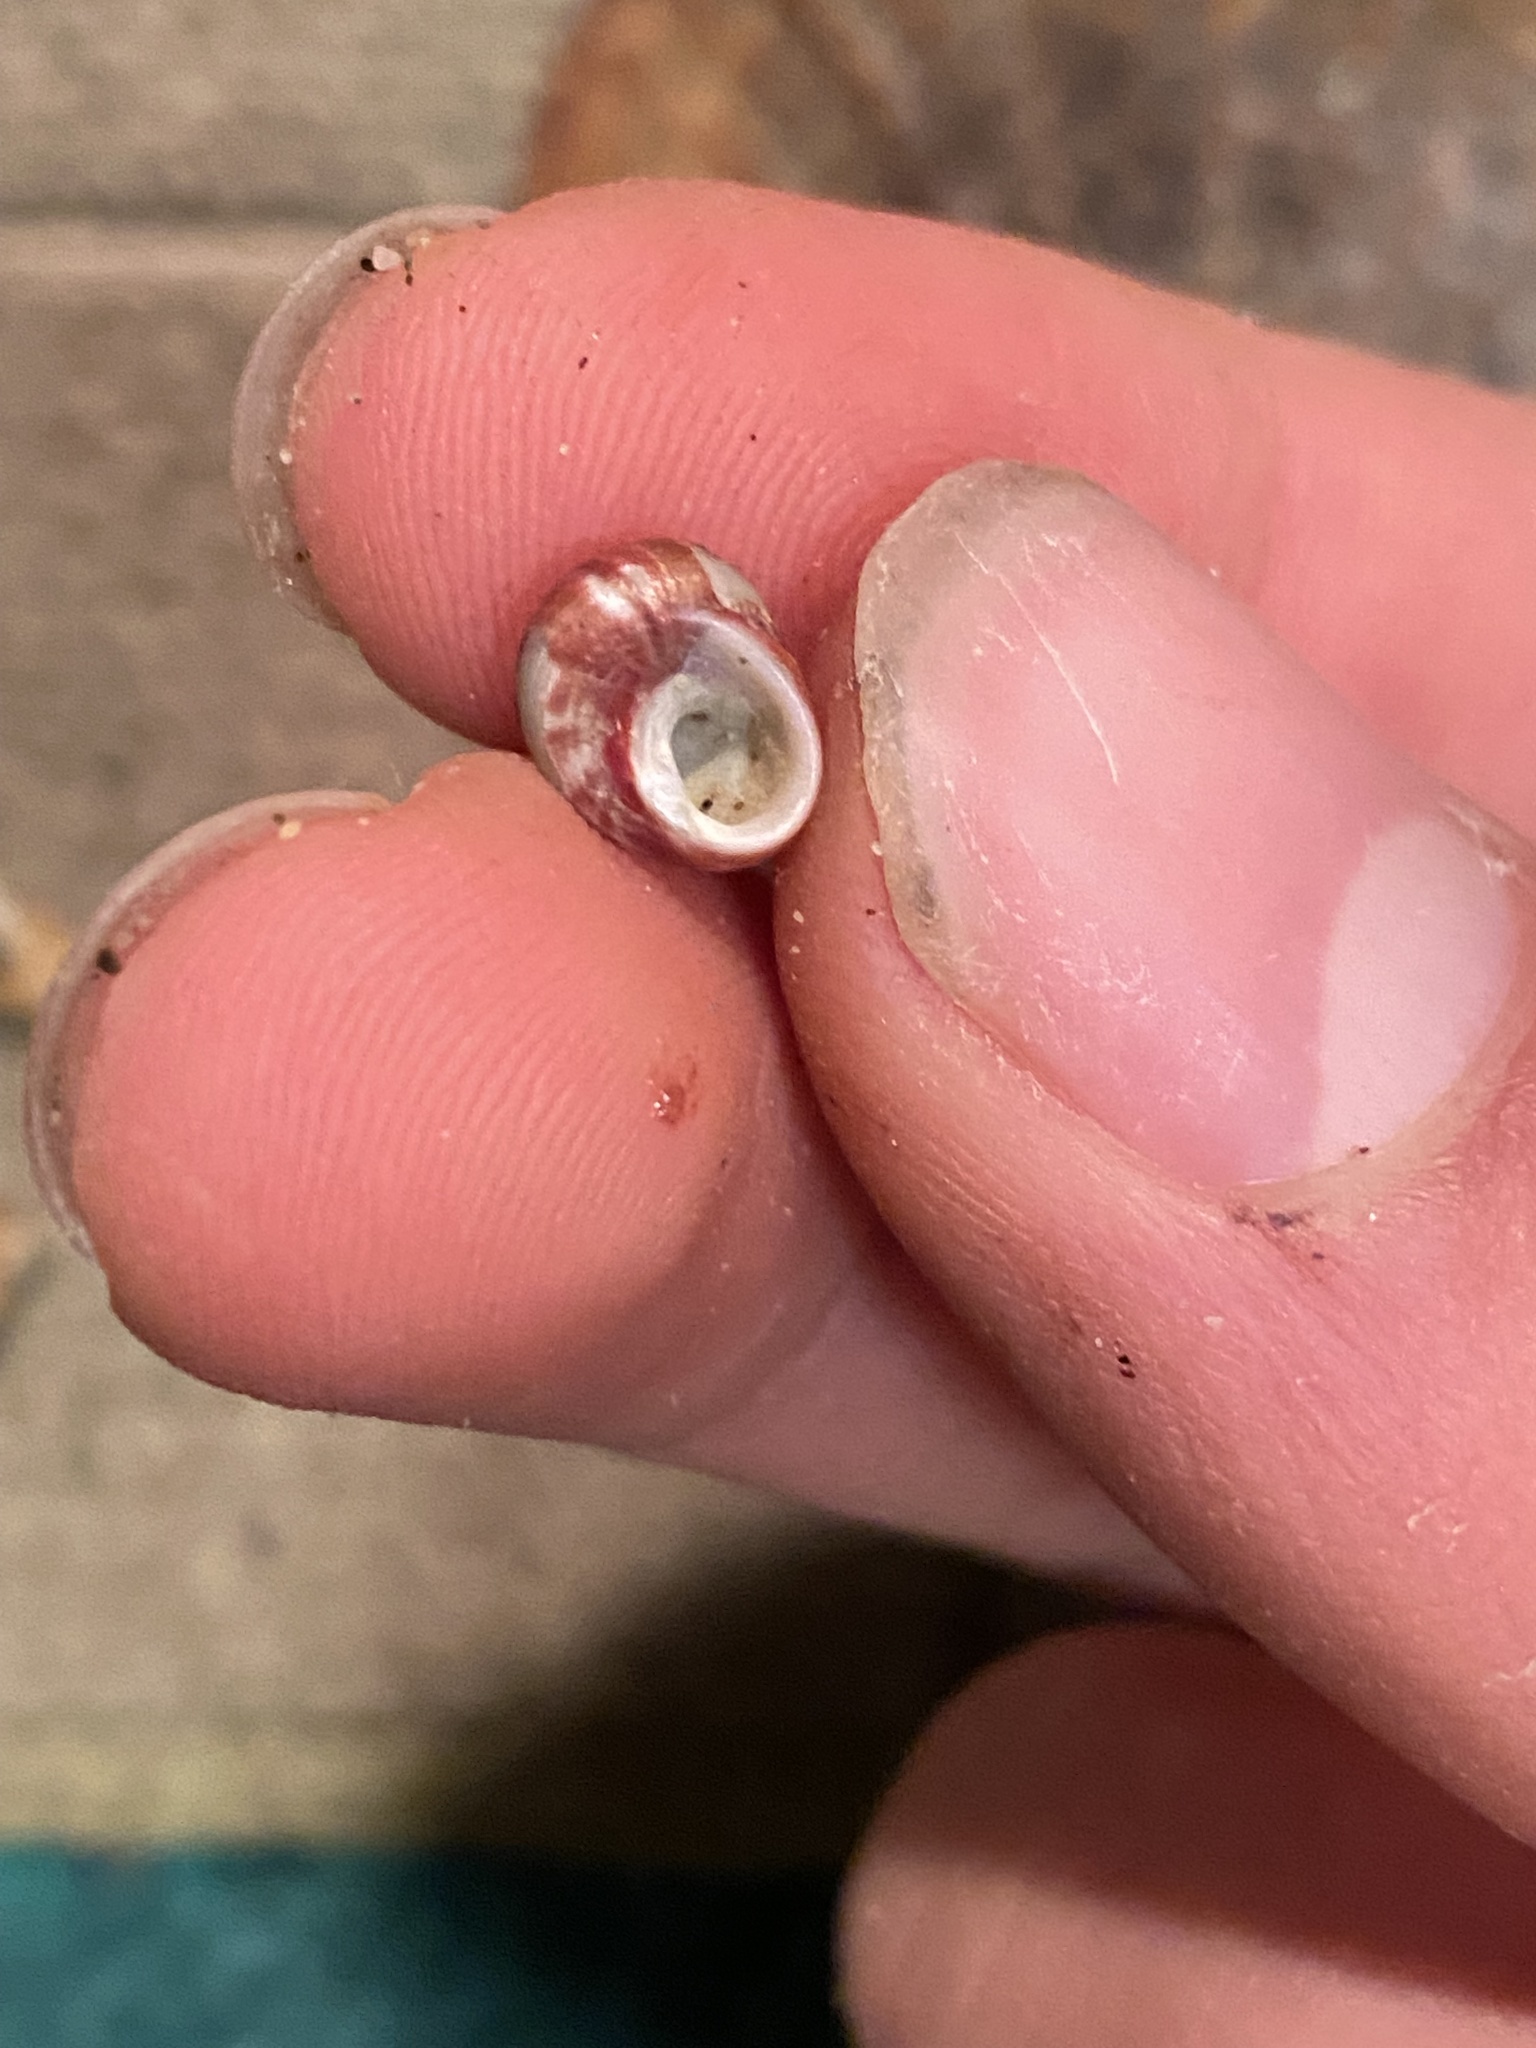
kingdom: Animalia
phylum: Mollusca
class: Gastropoda
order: Trochida
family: Colloniidae
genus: Gigahomalopoma
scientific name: Gigahomalopoma luridum
